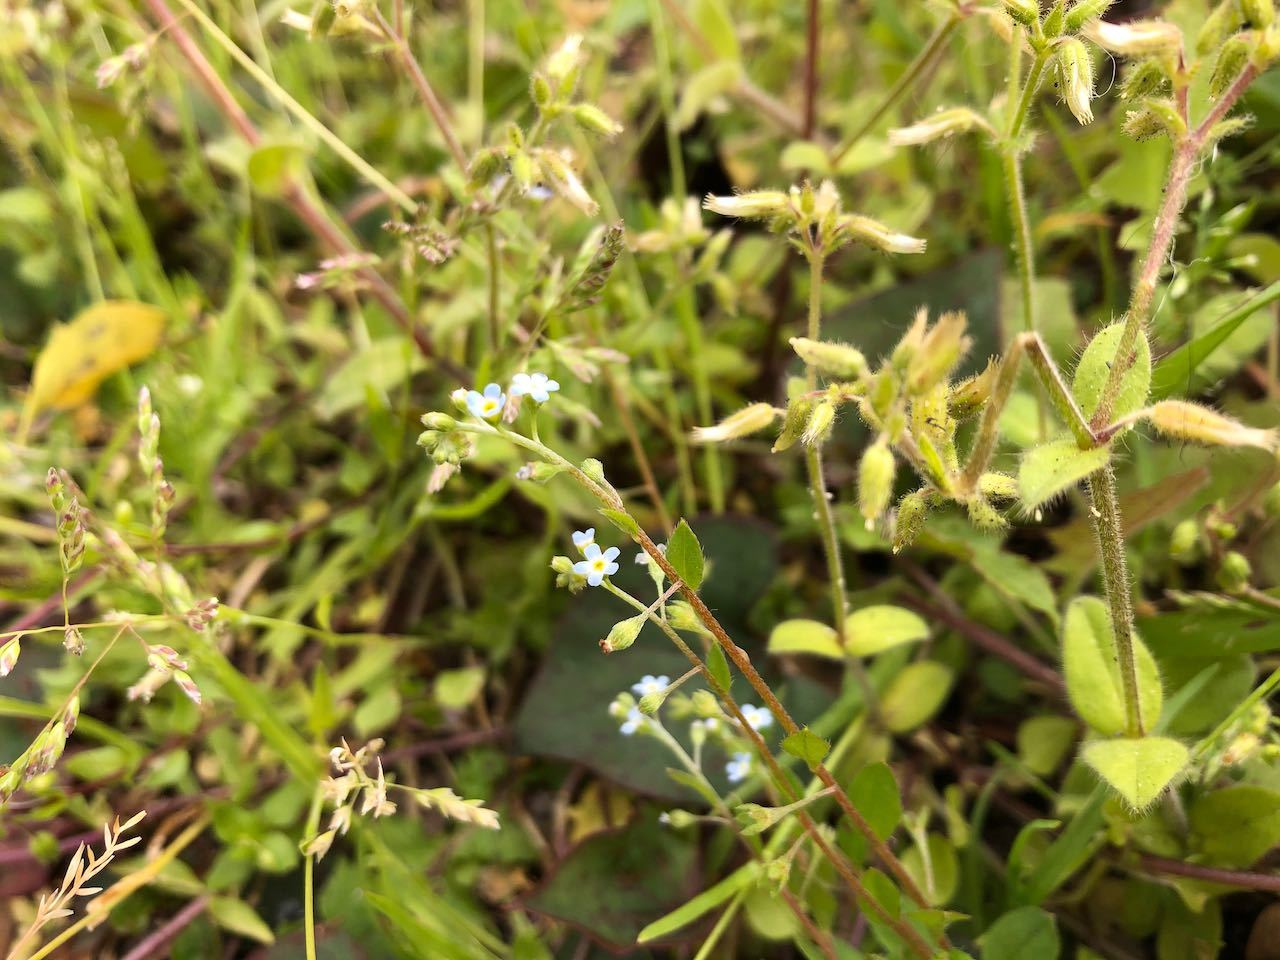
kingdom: Plantae
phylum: Tracheophyta
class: Magnoliopsida
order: Boraginales
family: Boraginaceae
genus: Trigonotis
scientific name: Trigonotis peduncularis
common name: Cucumber herb
